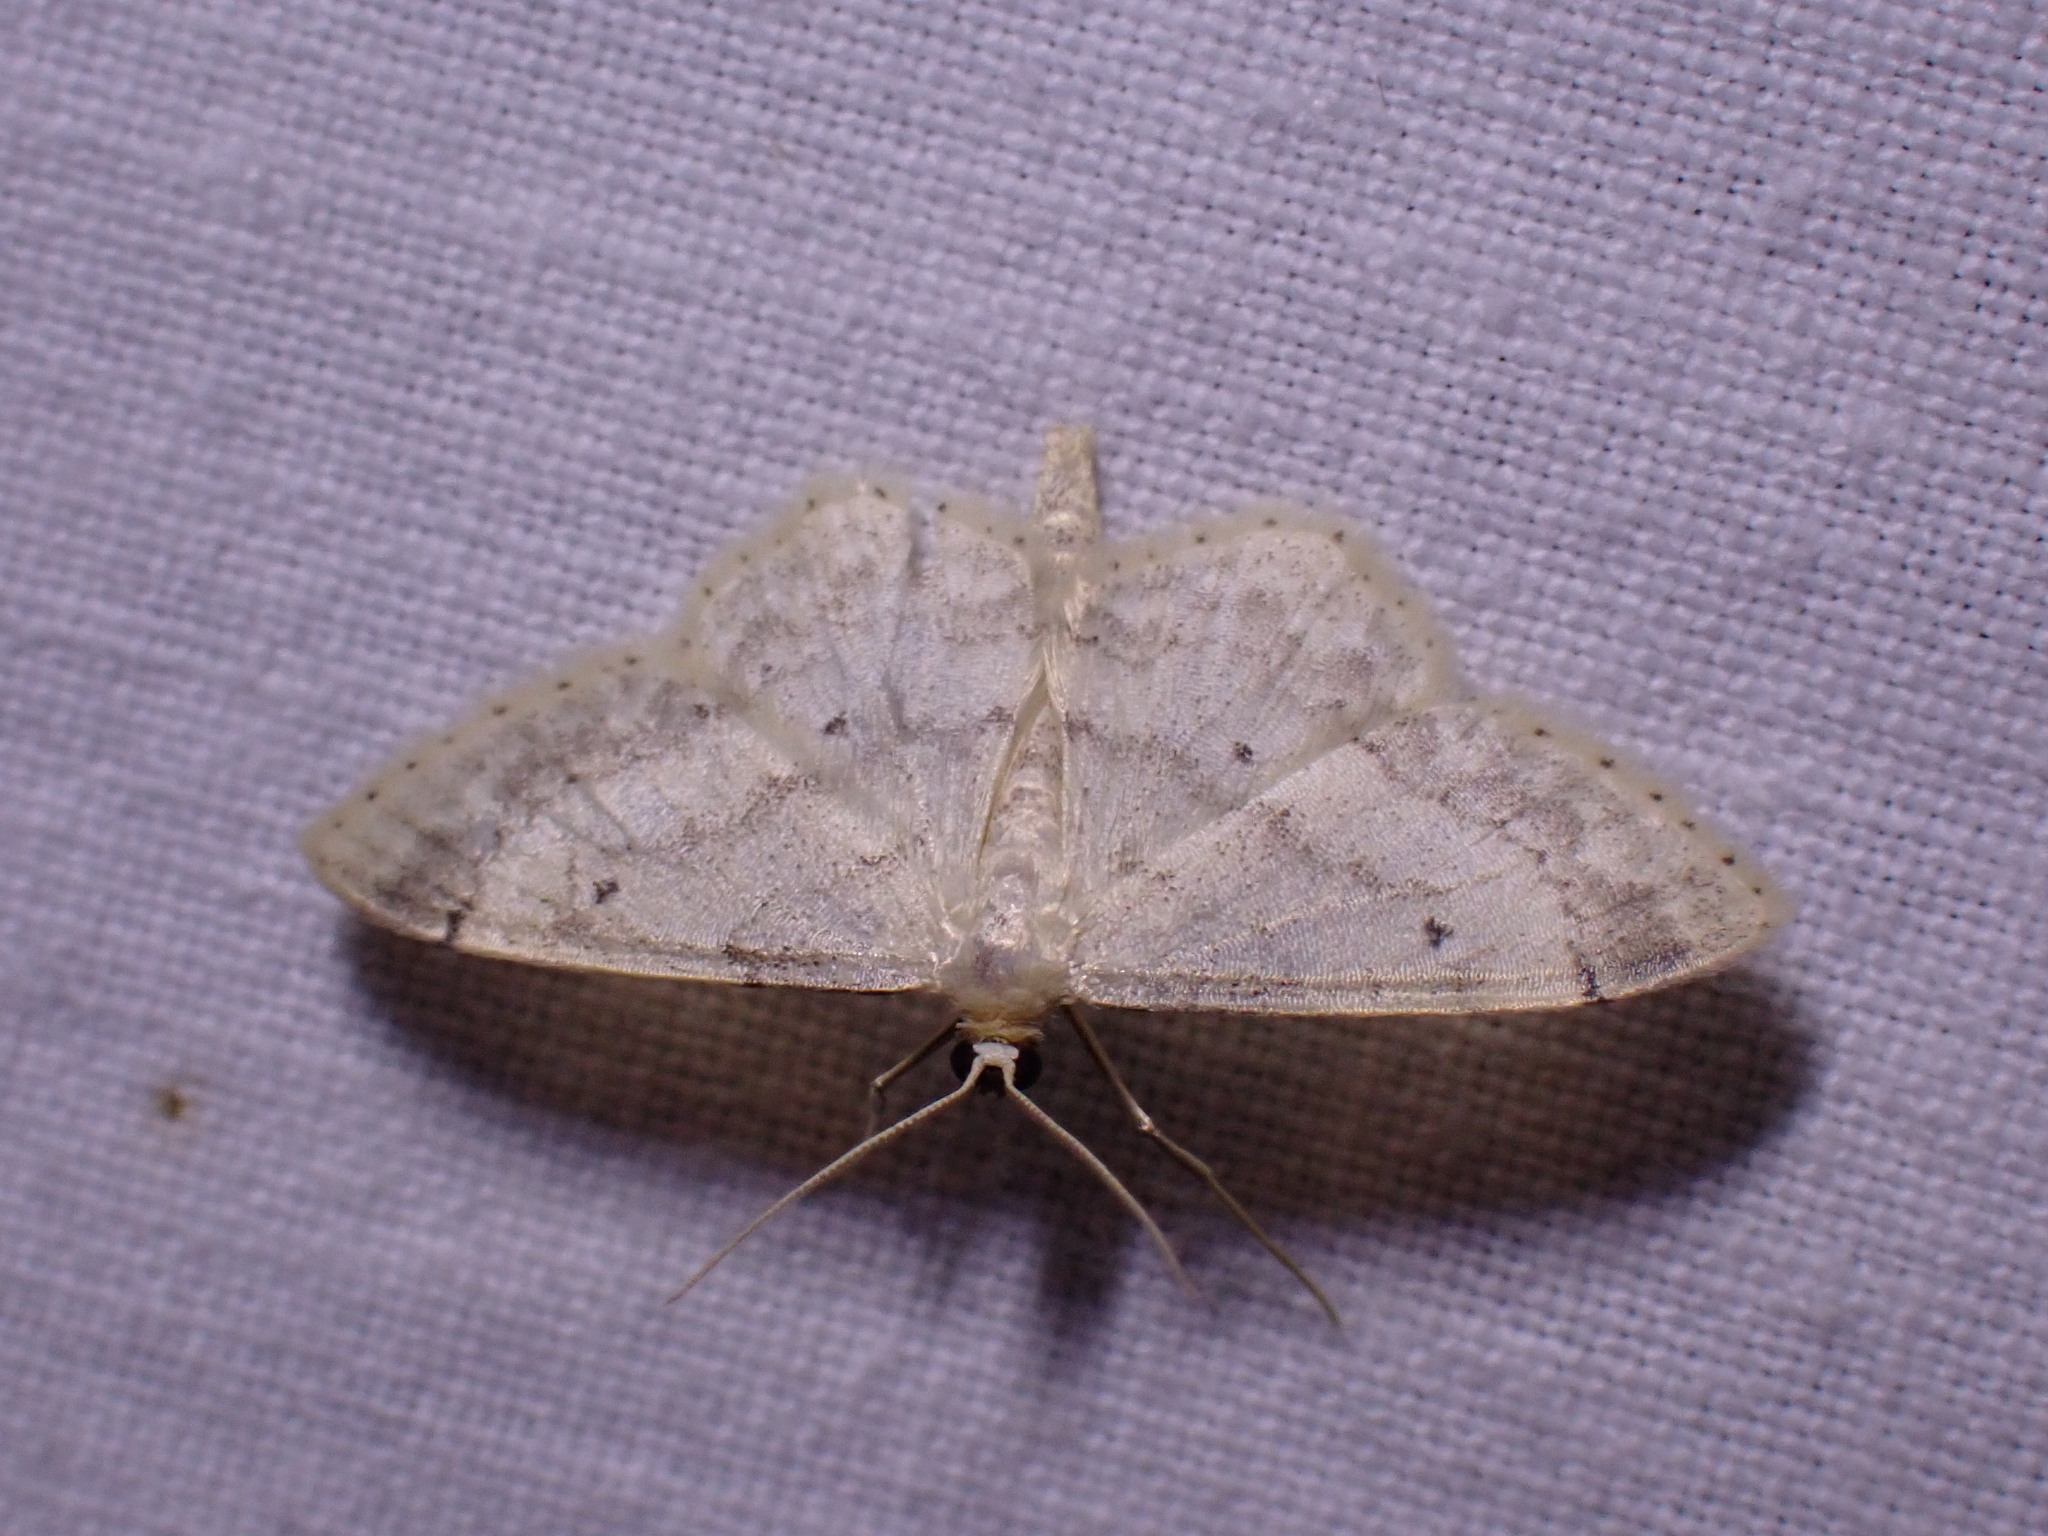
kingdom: Animalia
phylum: Arthropoda
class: Insecta
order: Lepidoptera
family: Geometridae
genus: Idaea
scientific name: Idaea biselata
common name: Small fan-footed wave
